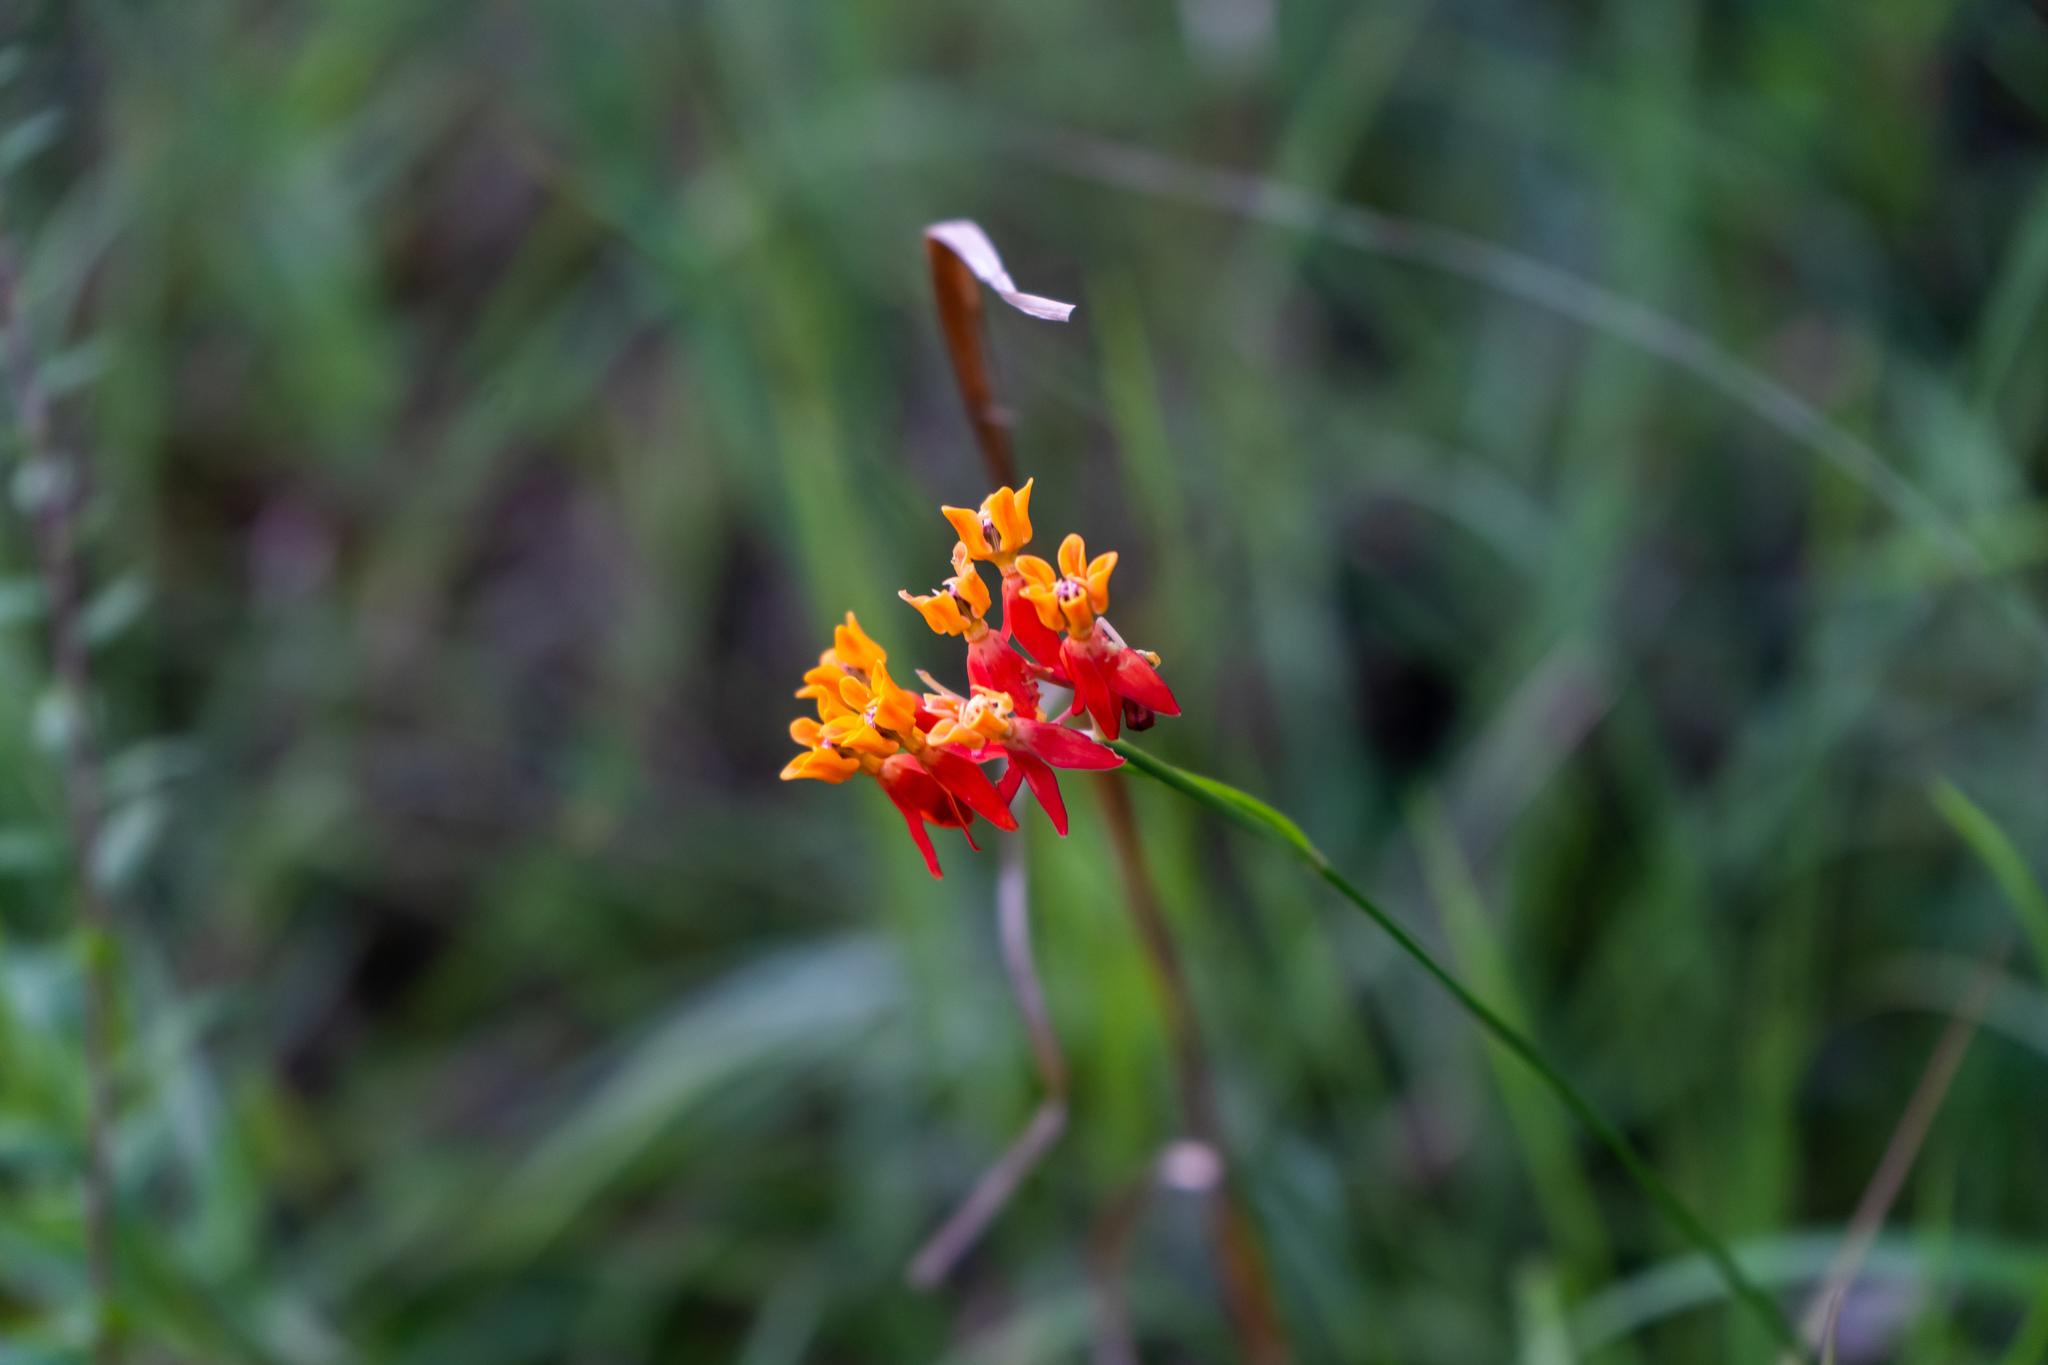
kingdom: Plantae
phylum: Tracheophyta
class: Magnoliopsida
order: Gentianales
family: Apocynaceae
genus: Asclepias
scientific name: Asclepias lanceolata
